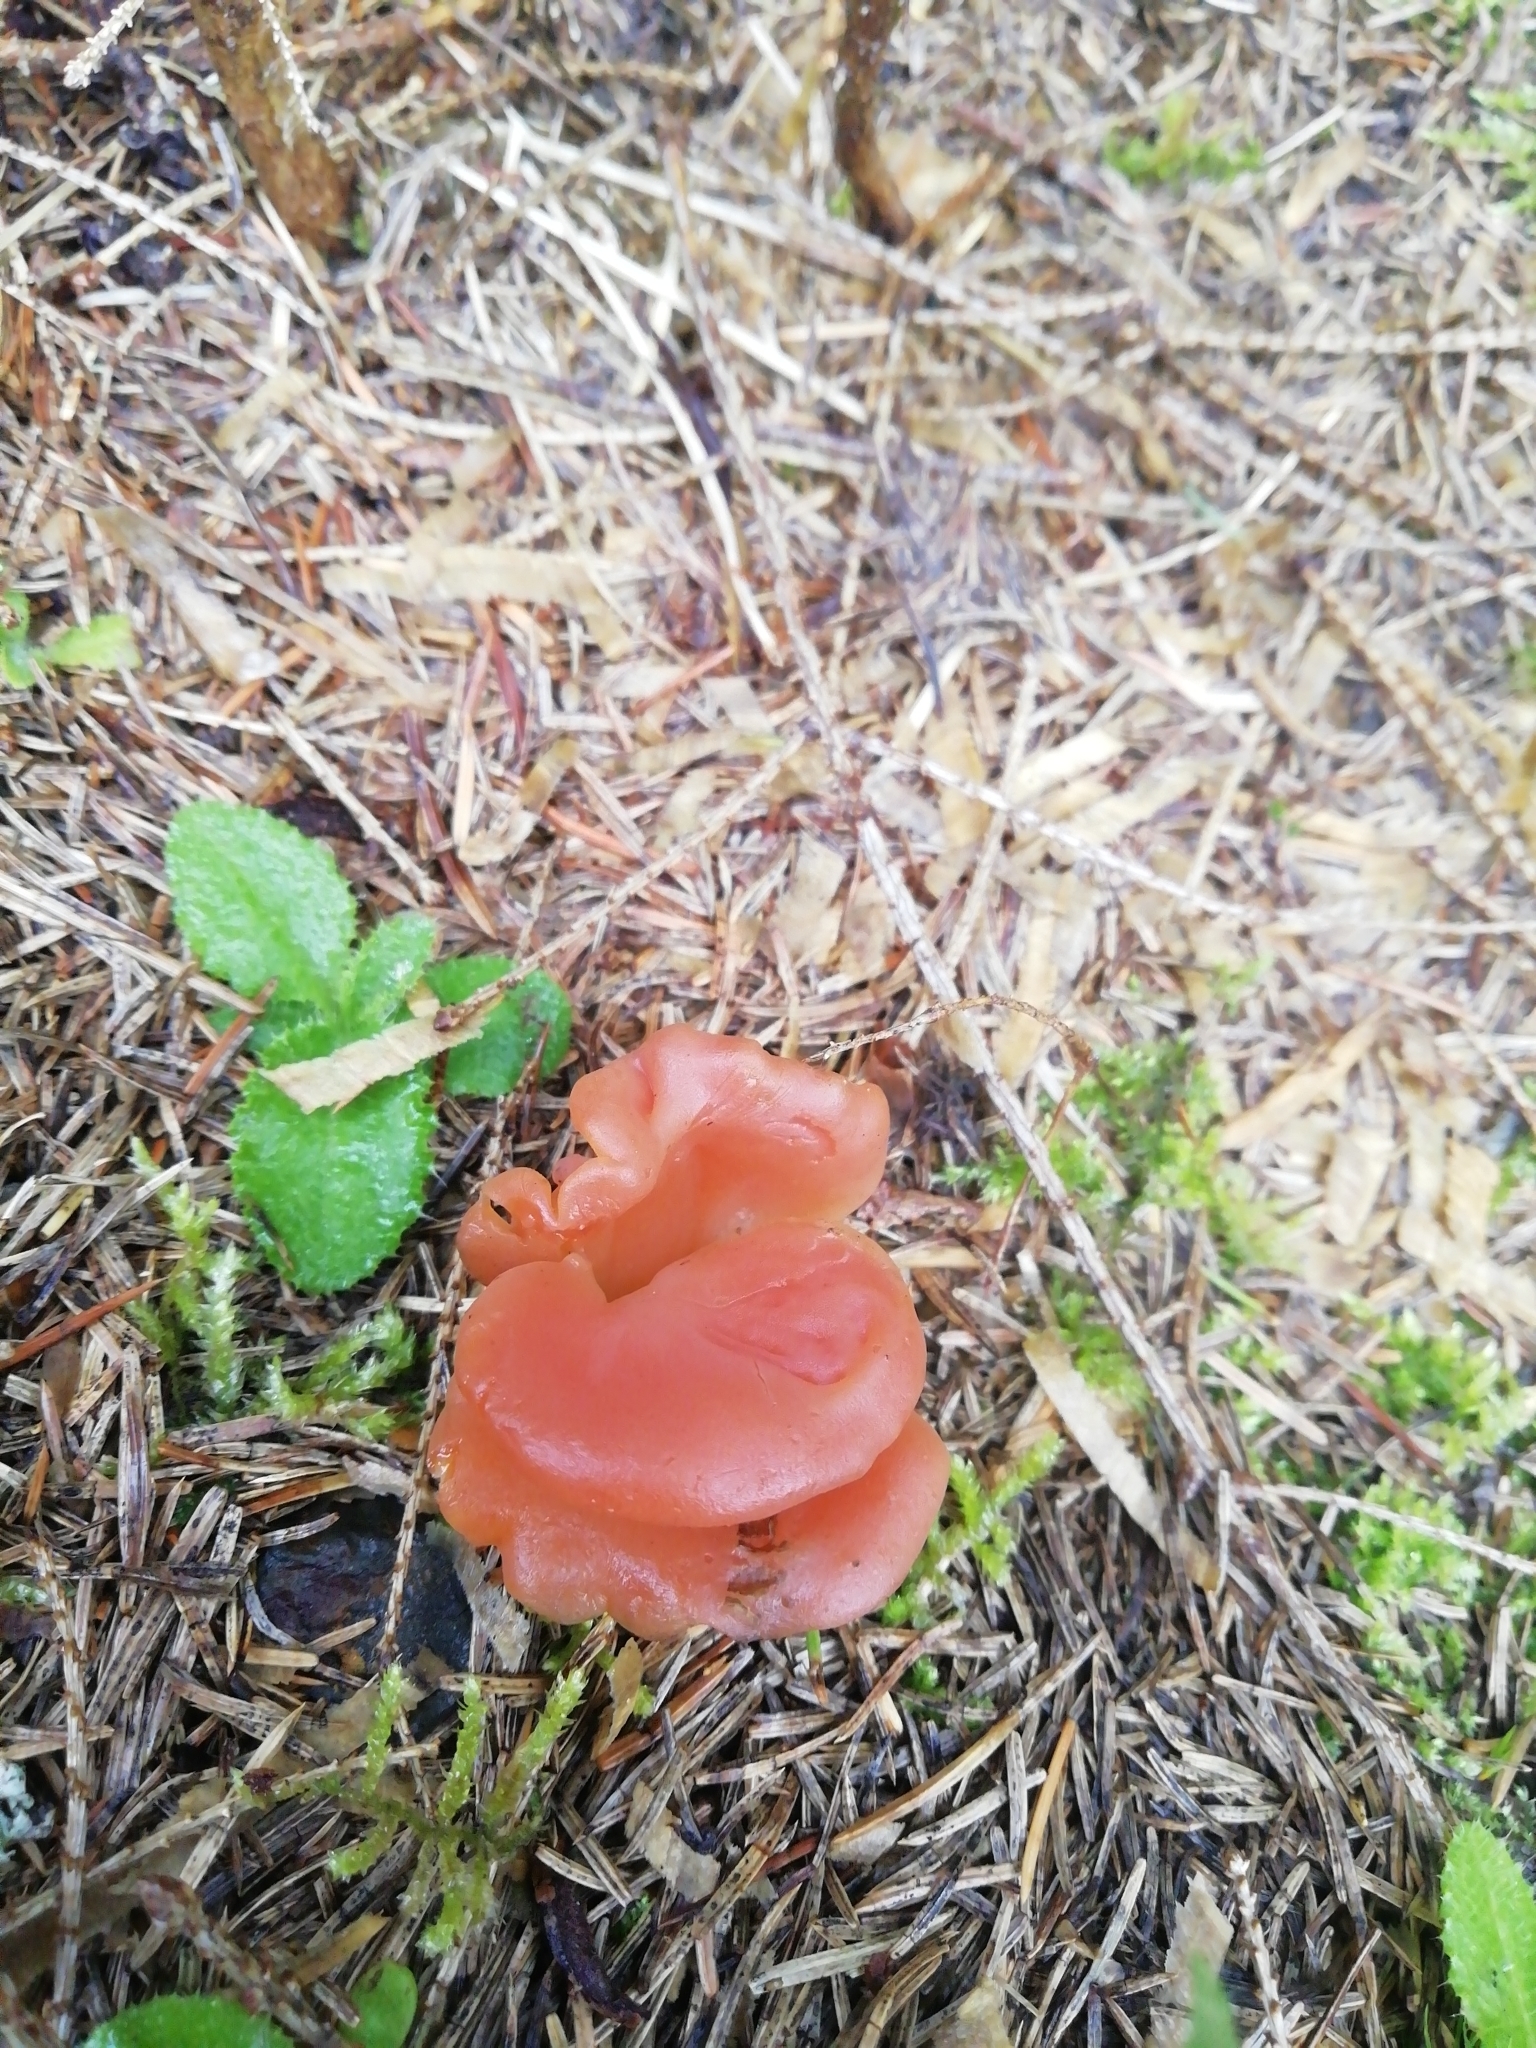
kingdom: Fungi
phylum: Basidiomycota
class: Agaricomycetes
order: Auriculariales
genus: Guepinia
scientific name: Guepinia helvelloides
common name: Salmon salad
